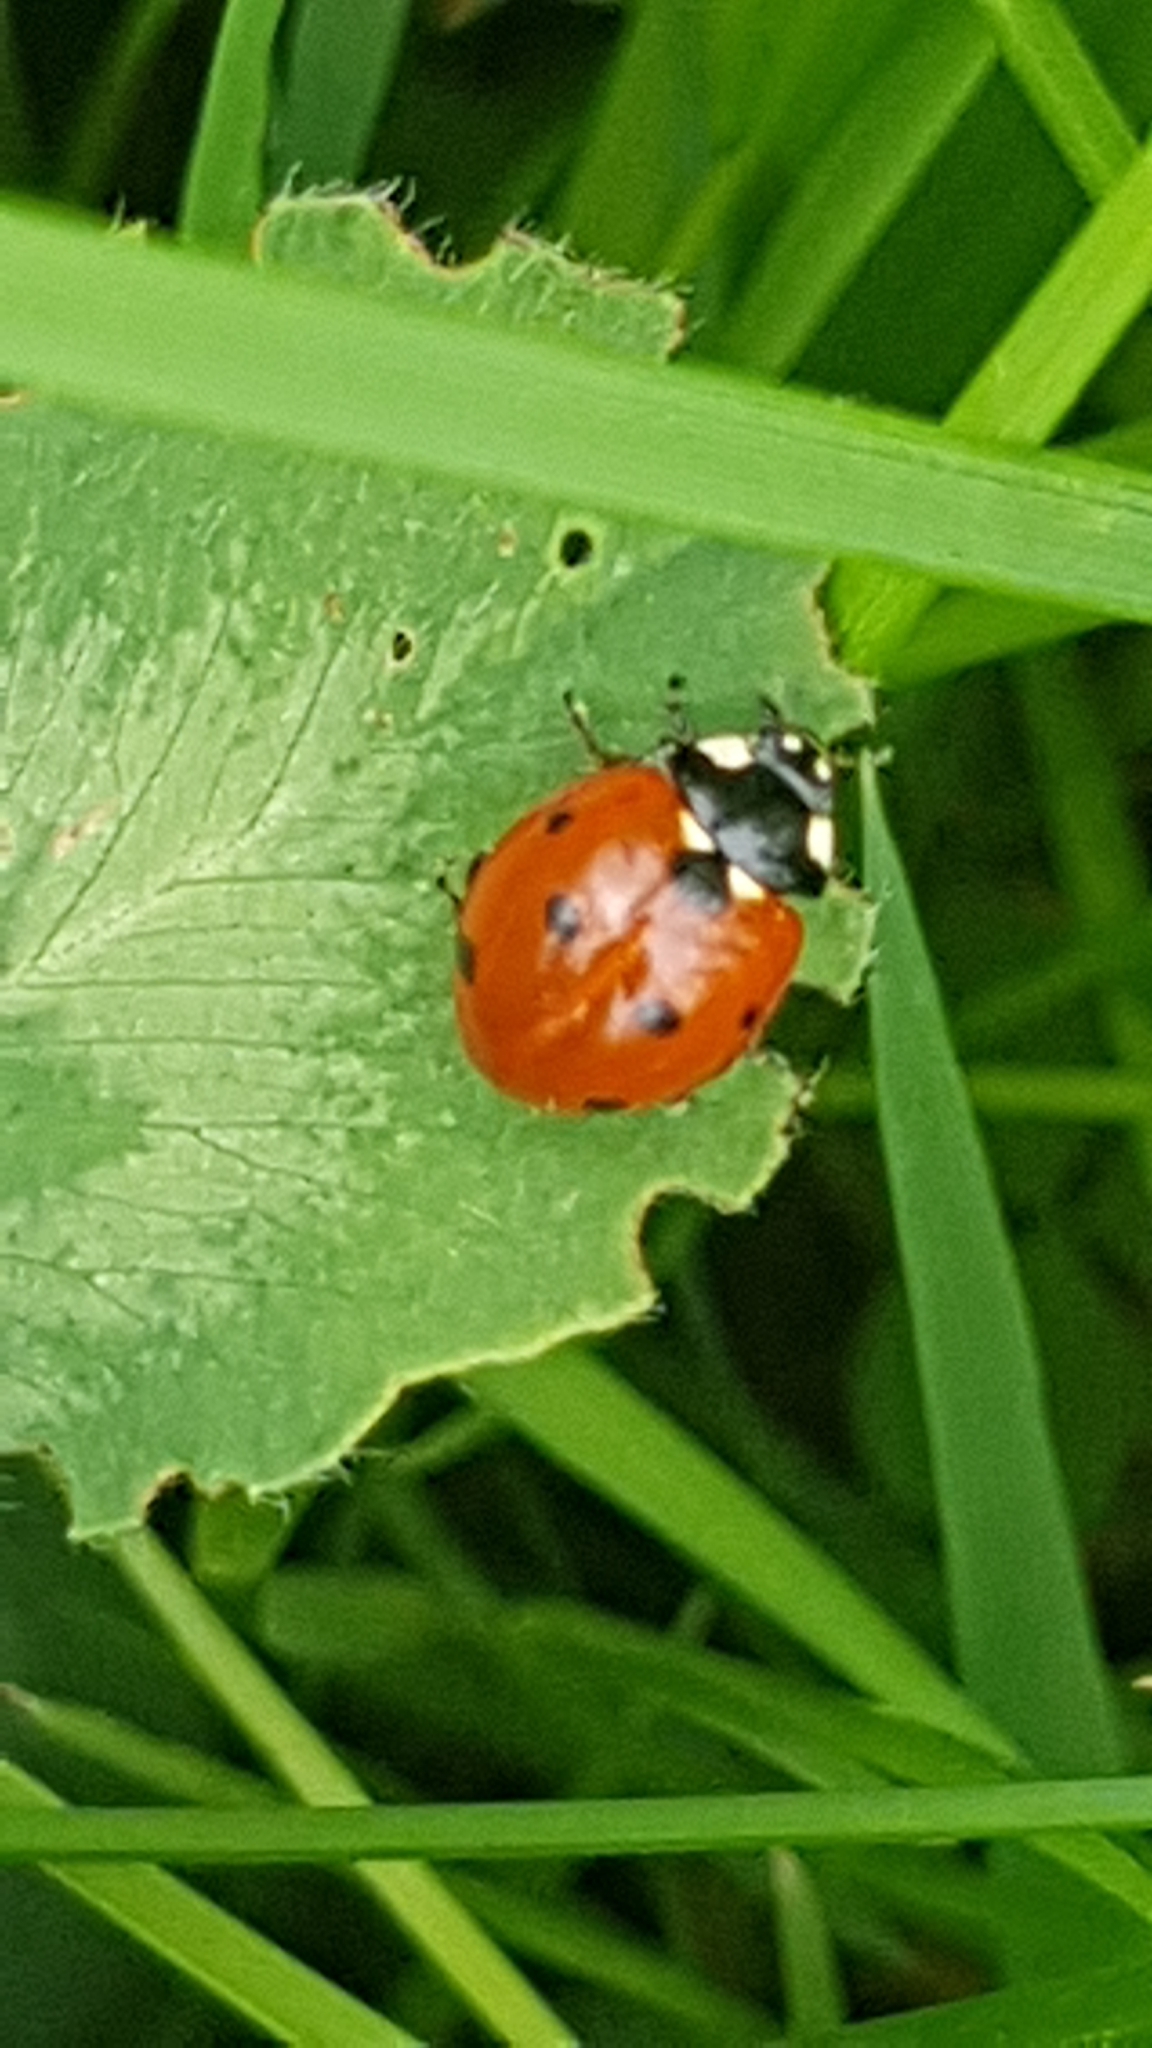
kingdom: Animalia
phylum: Arthropoda
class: Insecta
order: Coleoptera
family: Coccinellidae
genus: Coccinella
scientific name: Coccinella septempunctata
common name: Sevenspotted lady beetle
